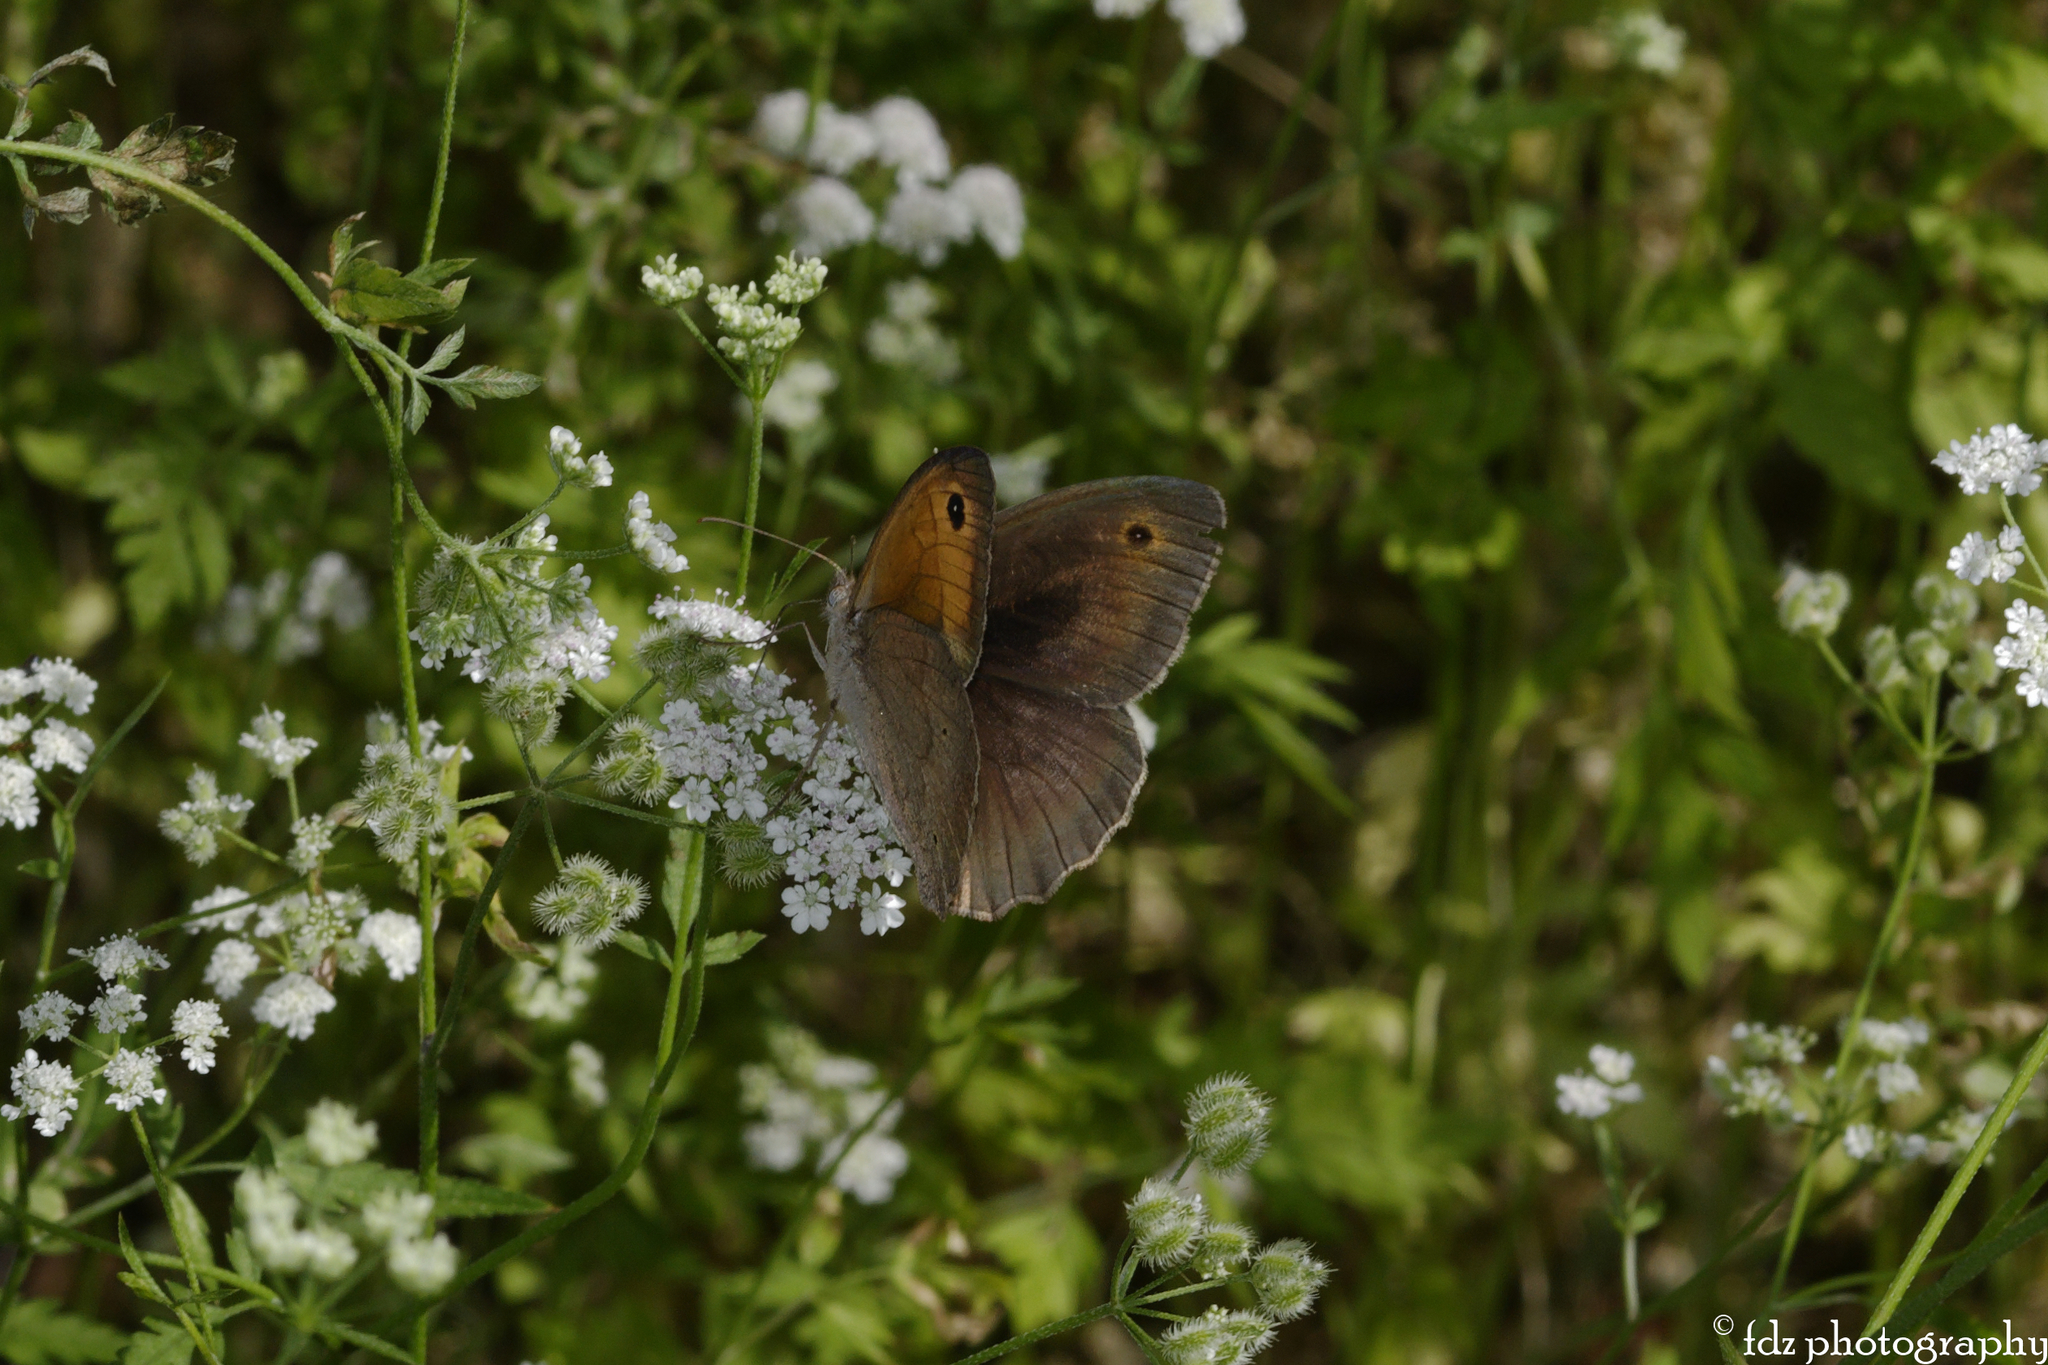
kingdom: Animalia
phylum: Arthropoda
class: Insecta
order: Lepidoptera
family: Nymphalidae
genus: Maniola
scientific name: Maniola jurtina
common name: Meadow brown
